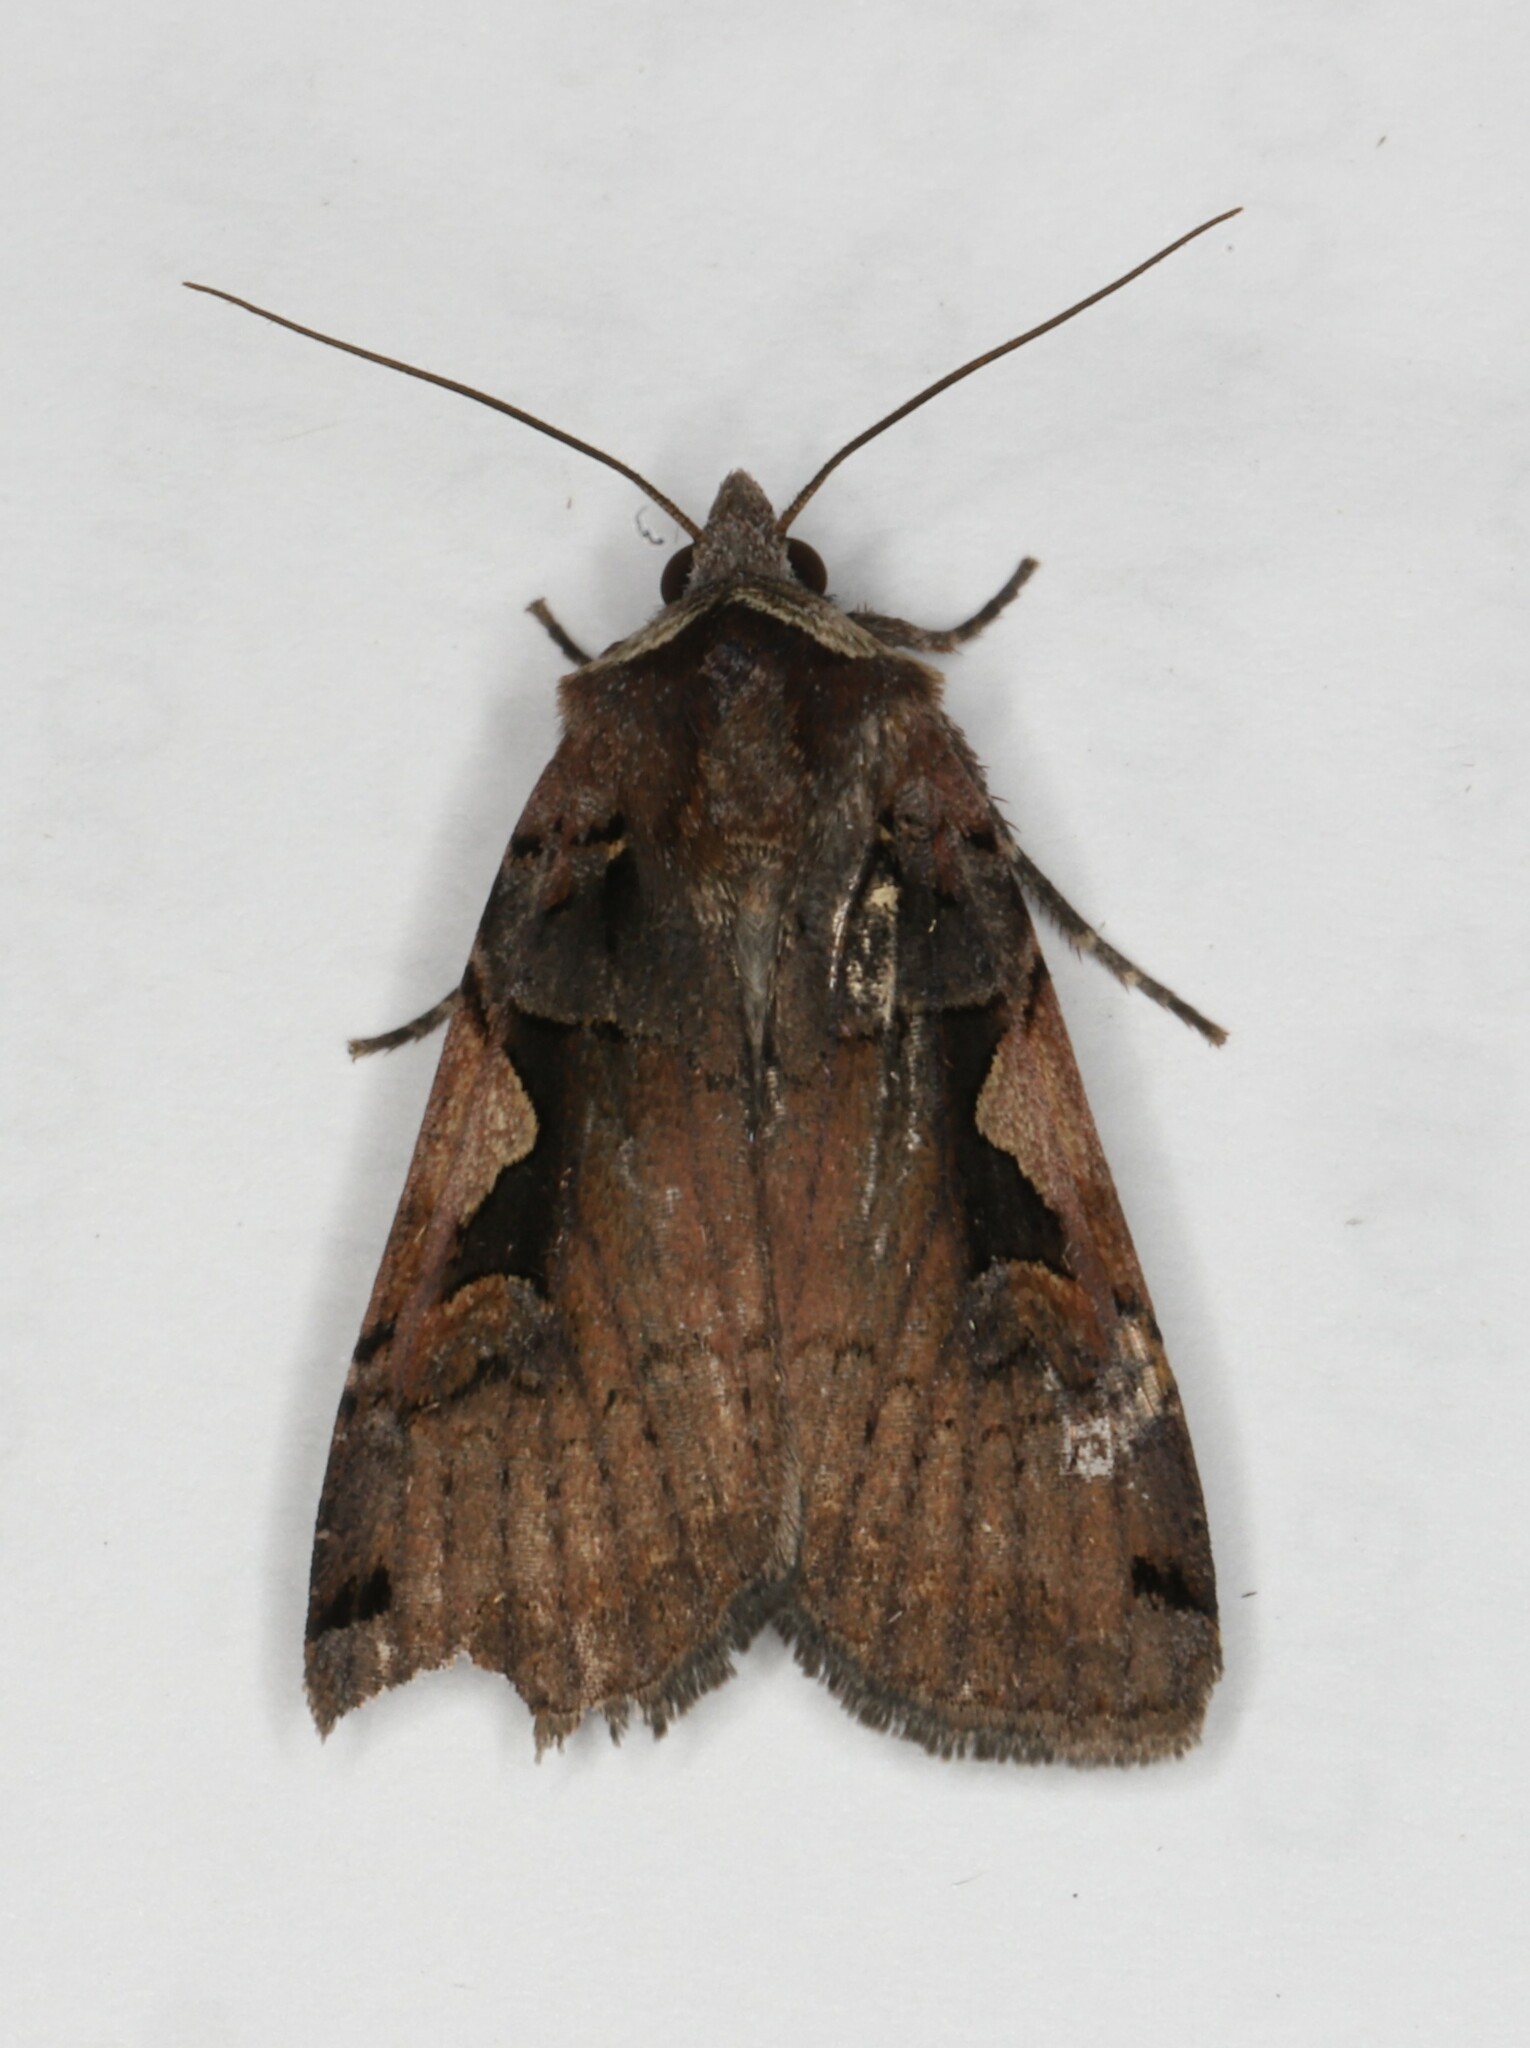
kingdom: Animalia
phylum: Arthropoda
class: Insecta
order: Lepidoptera
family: Noctuidae
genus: Xestia
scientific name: Xestia
